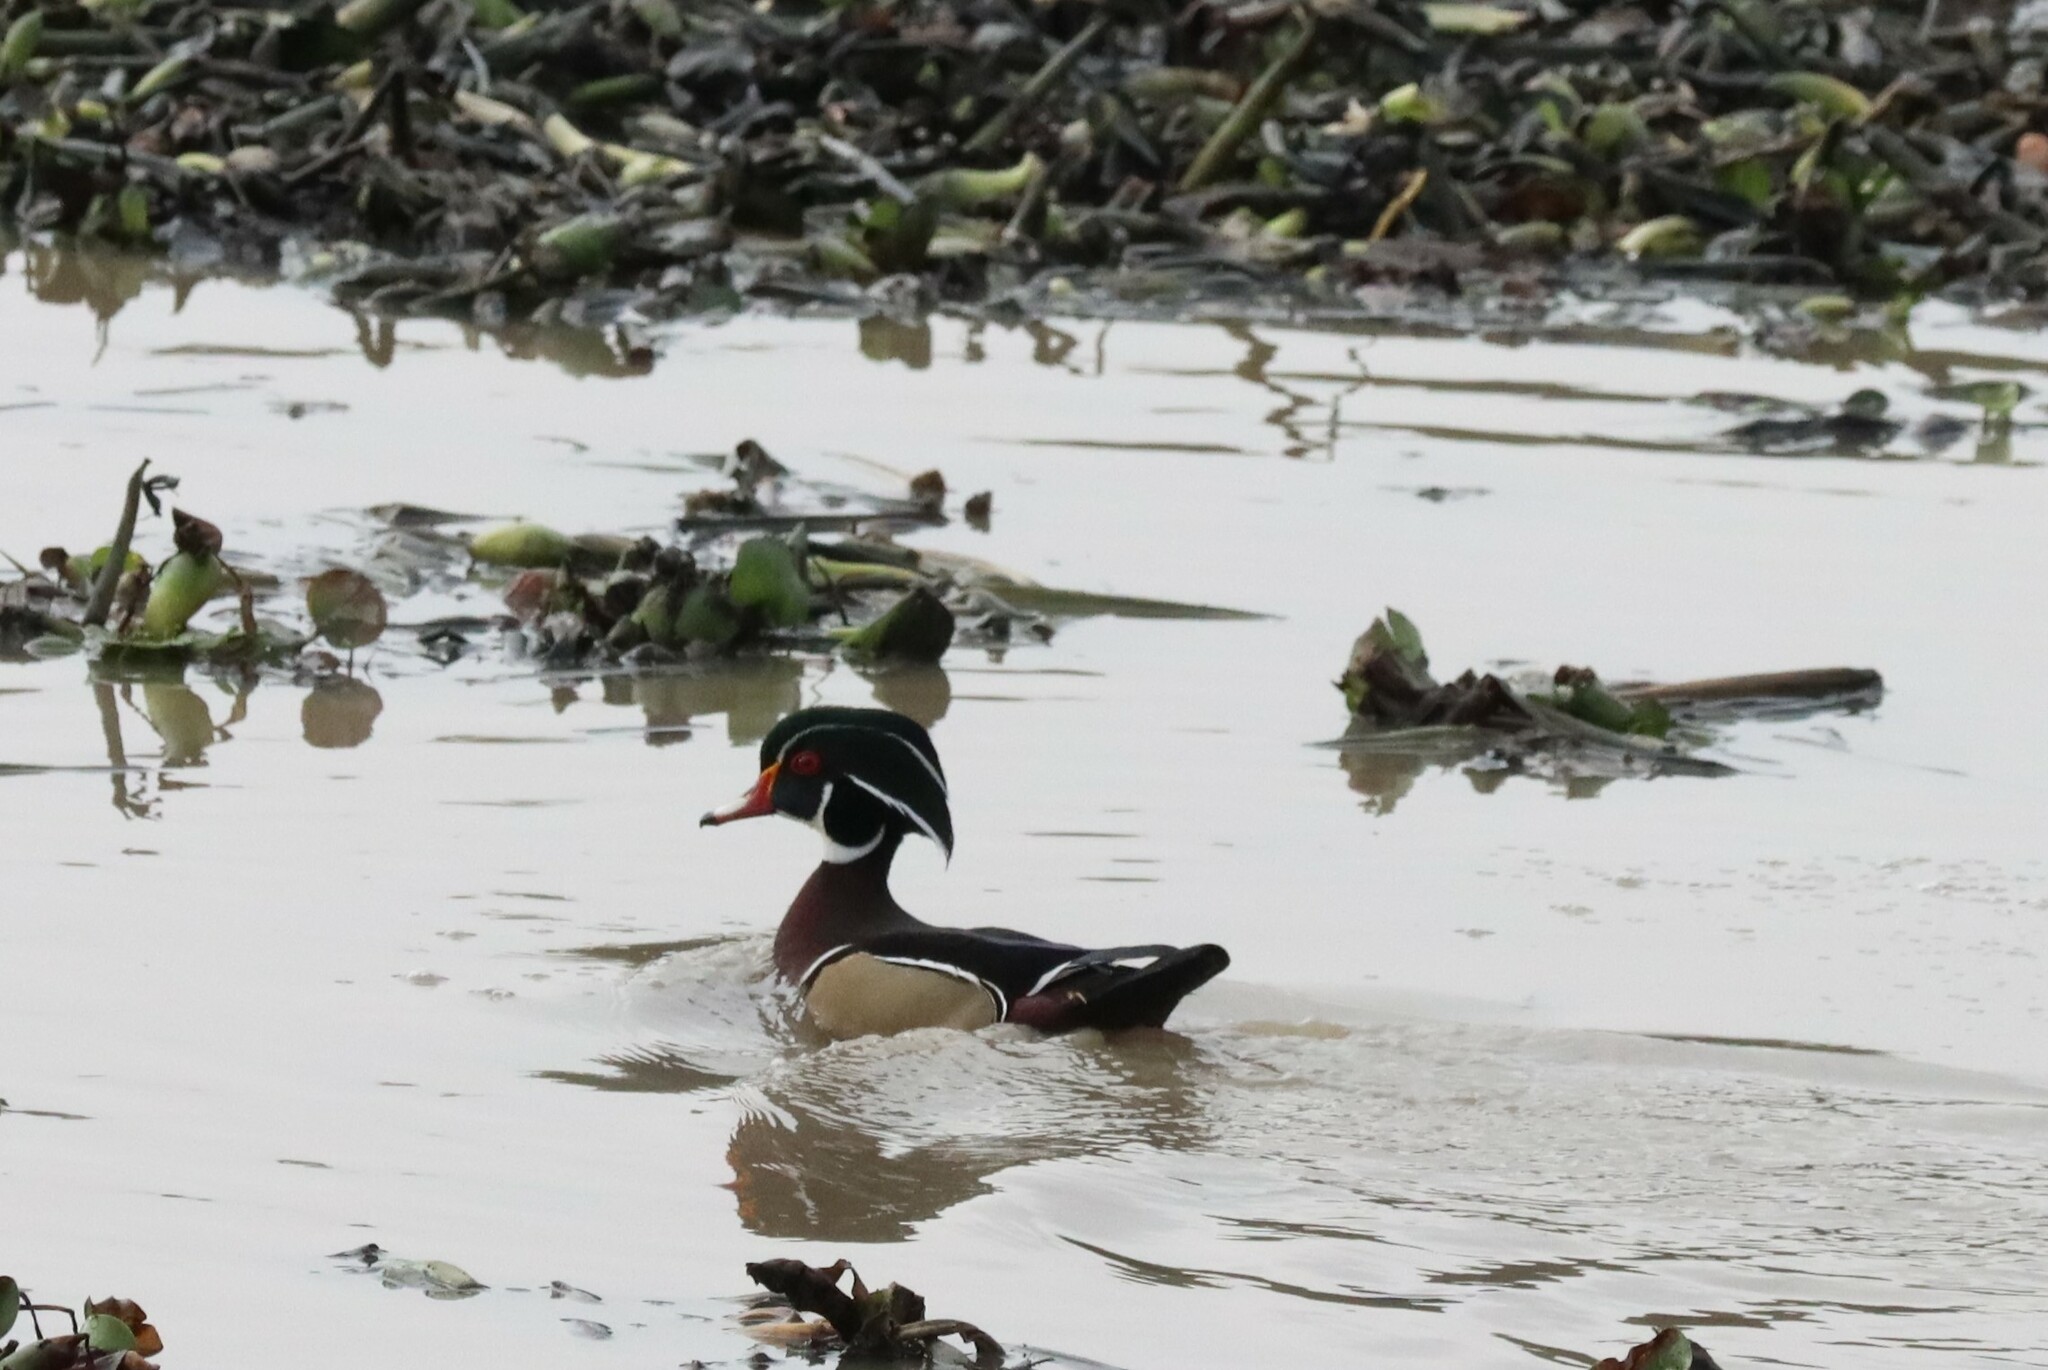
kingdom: Animalia
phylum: Chordata
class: Aves
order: Anseriformes
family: Anatidae
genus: Aix
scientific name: Aix sponsa
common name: Wood duck
